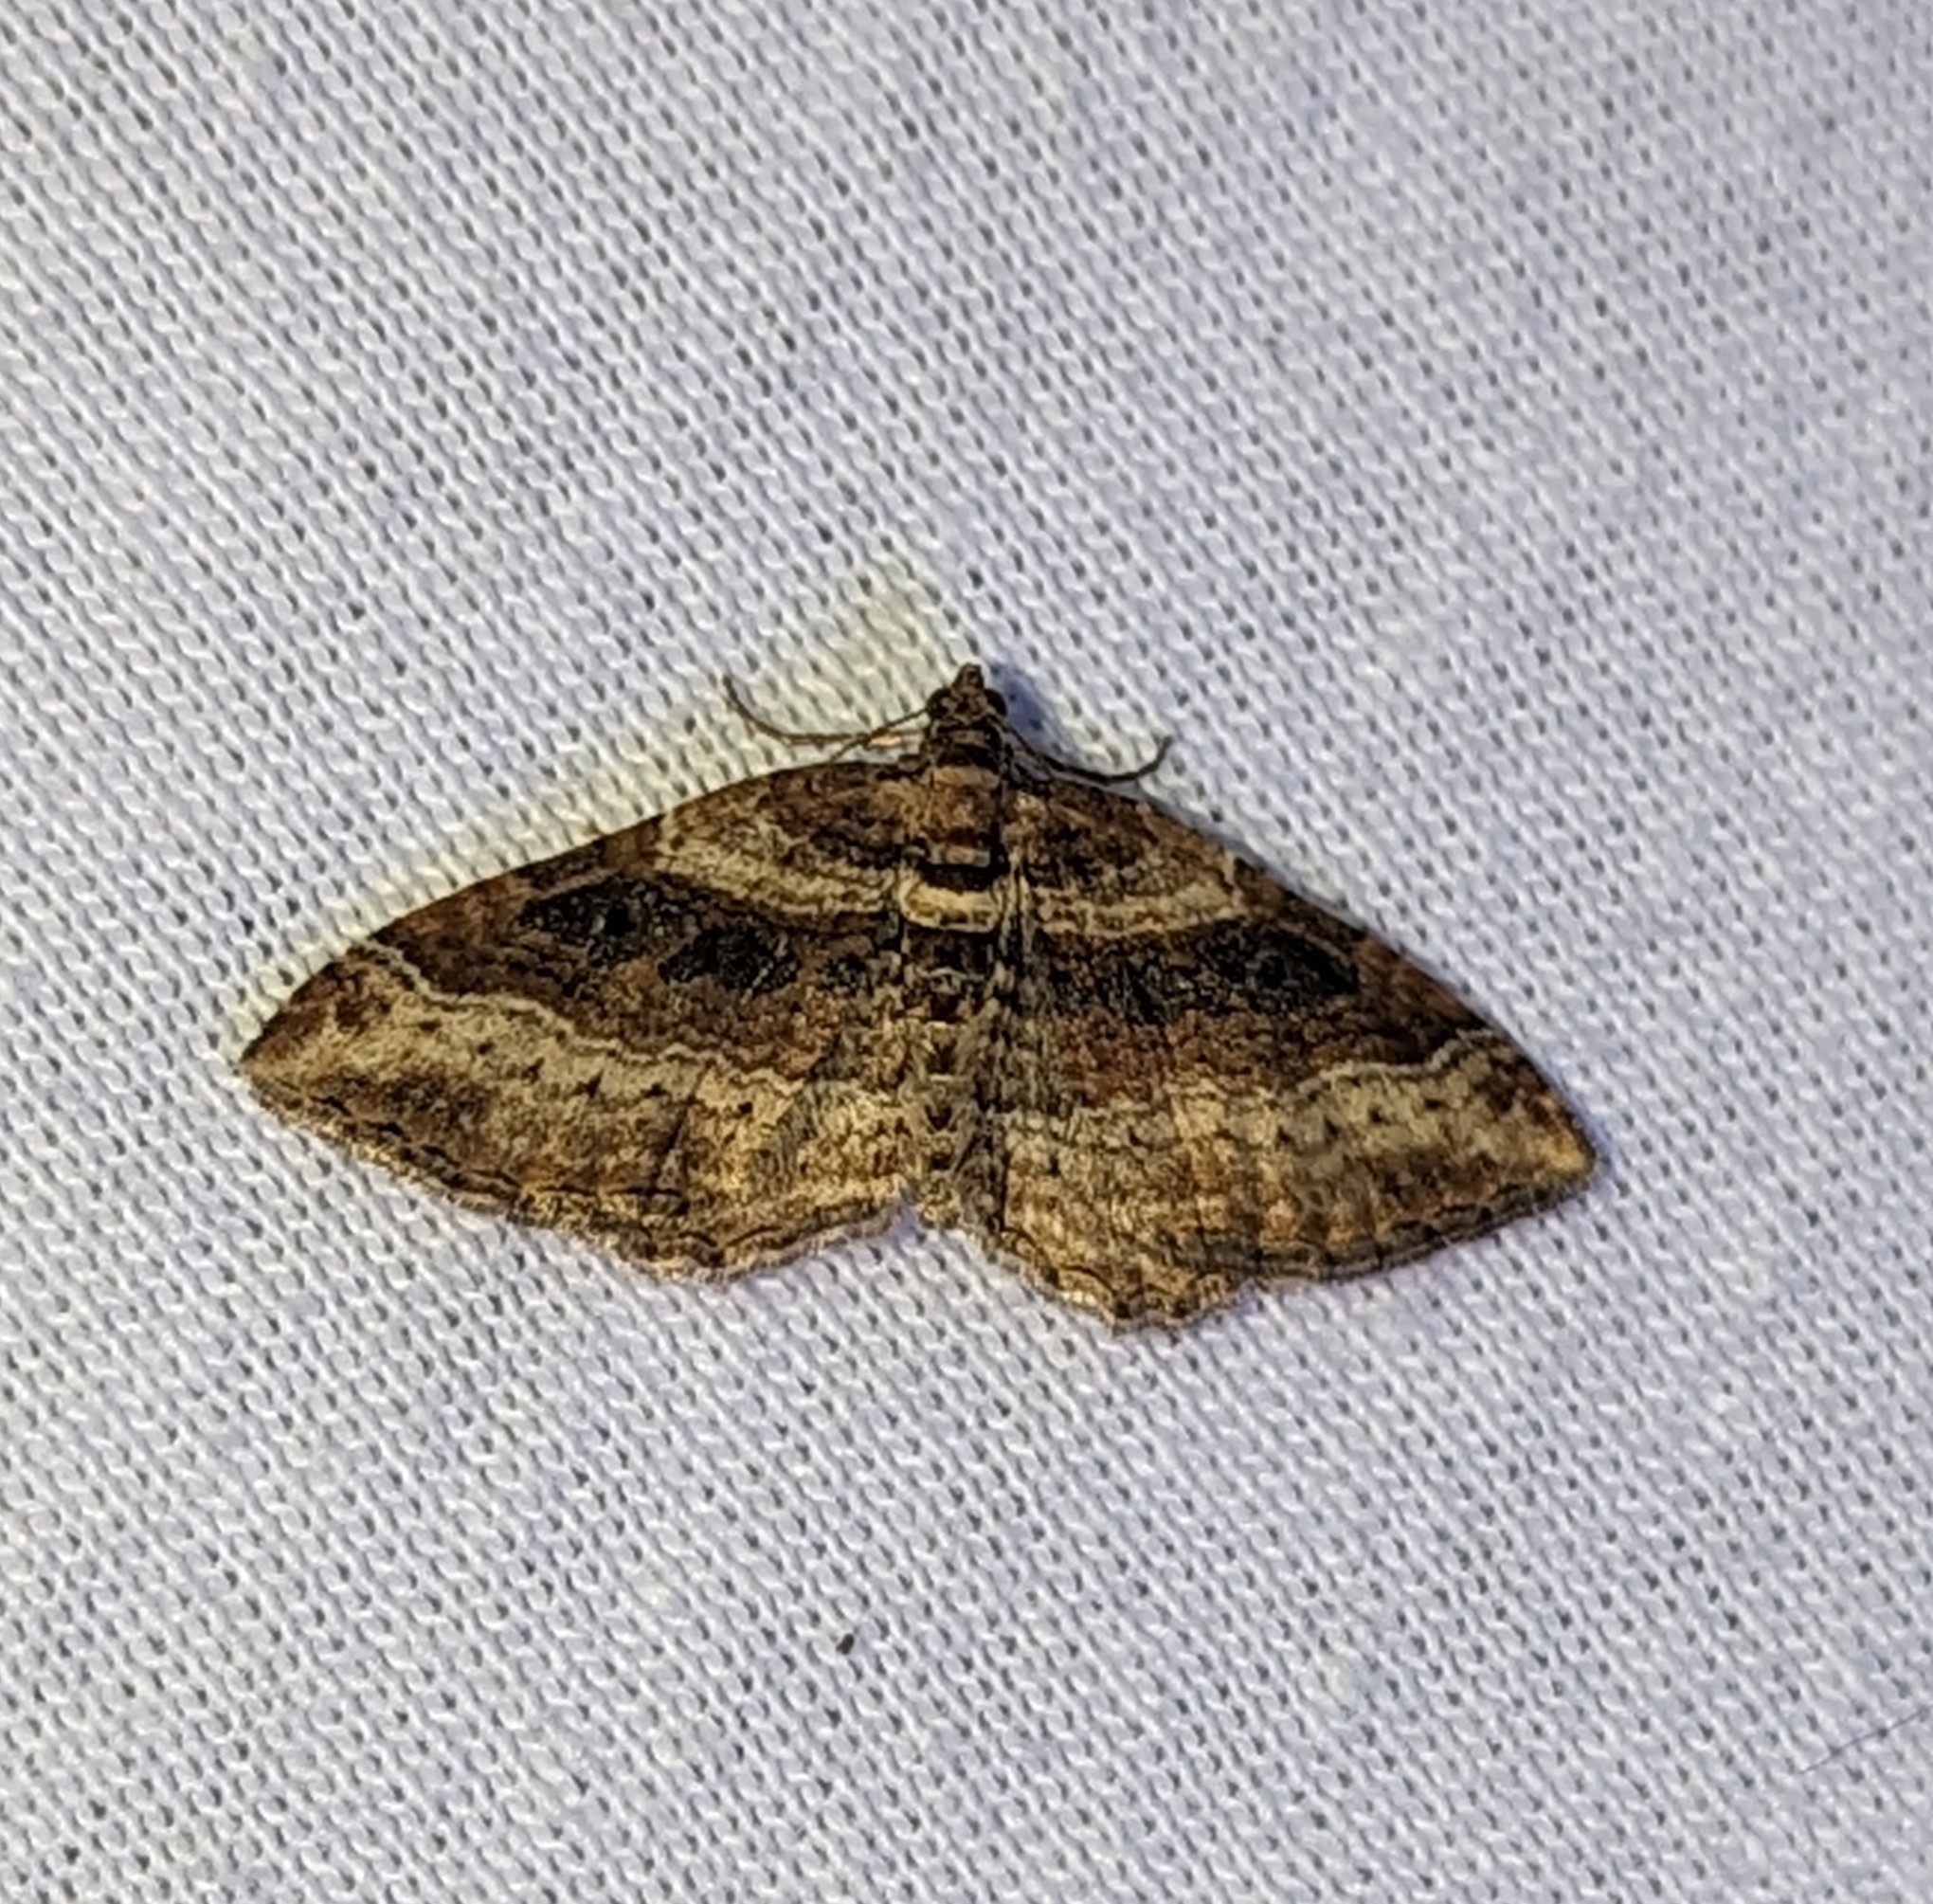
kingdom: Animalia
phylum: Arthropoda
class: Insecta
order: Lepidoptera
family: Geometridae
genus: Costaconvexa
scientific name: Costaconvexa centrostrigaria
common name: Bent-line carpet
